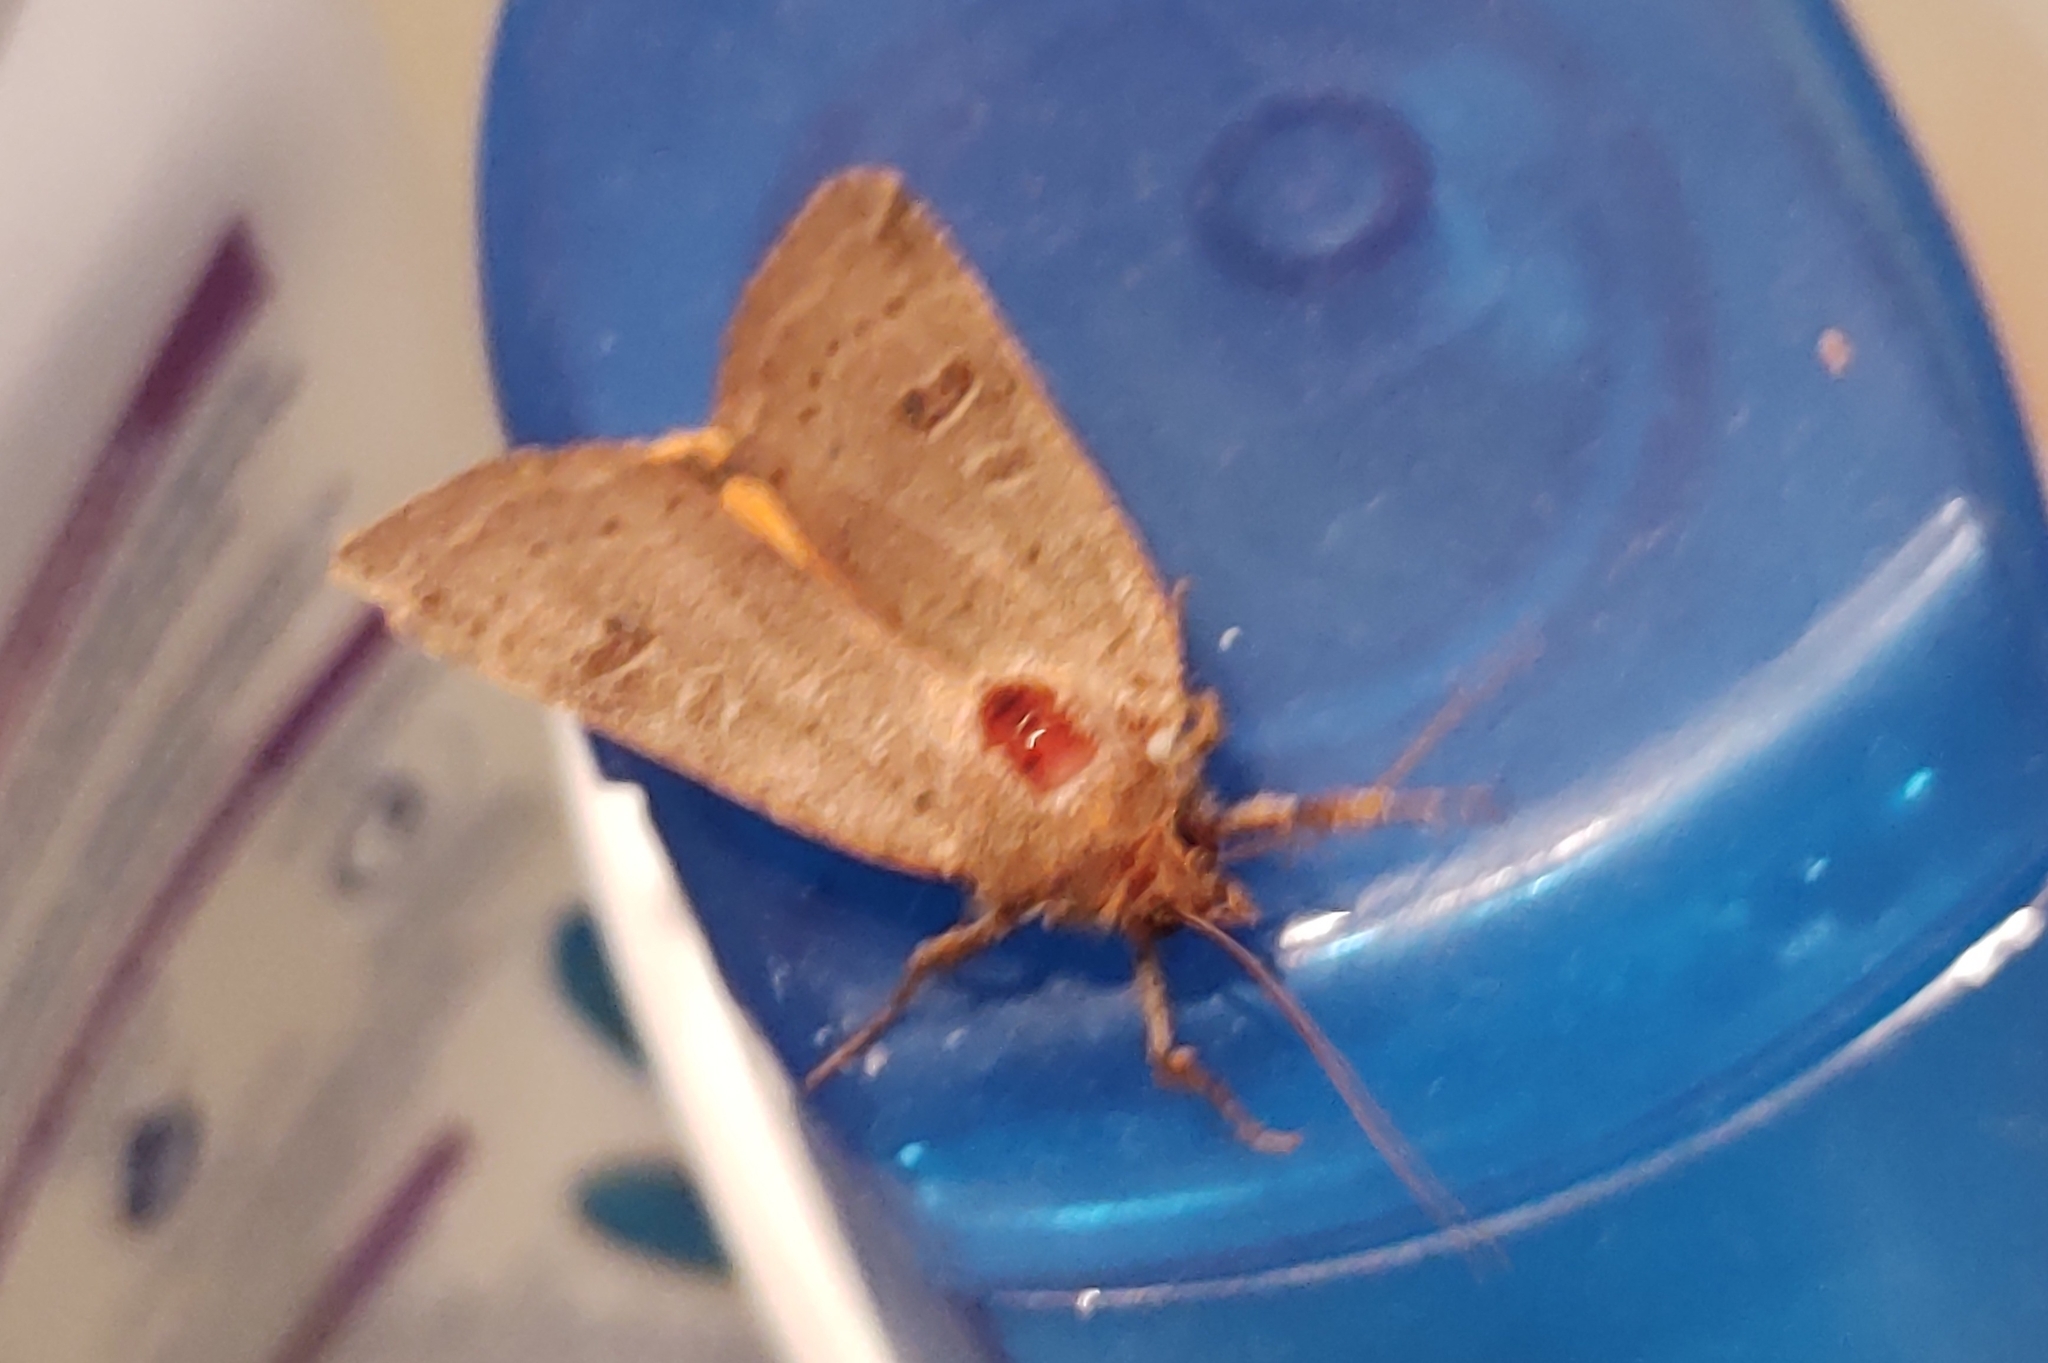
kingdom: Animalia
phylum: Arthropoda
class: Insecta
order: Lepidoptera
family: Noctuidae
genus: Noctua
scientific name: Noctua comes
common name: Lesser yellow underwing
